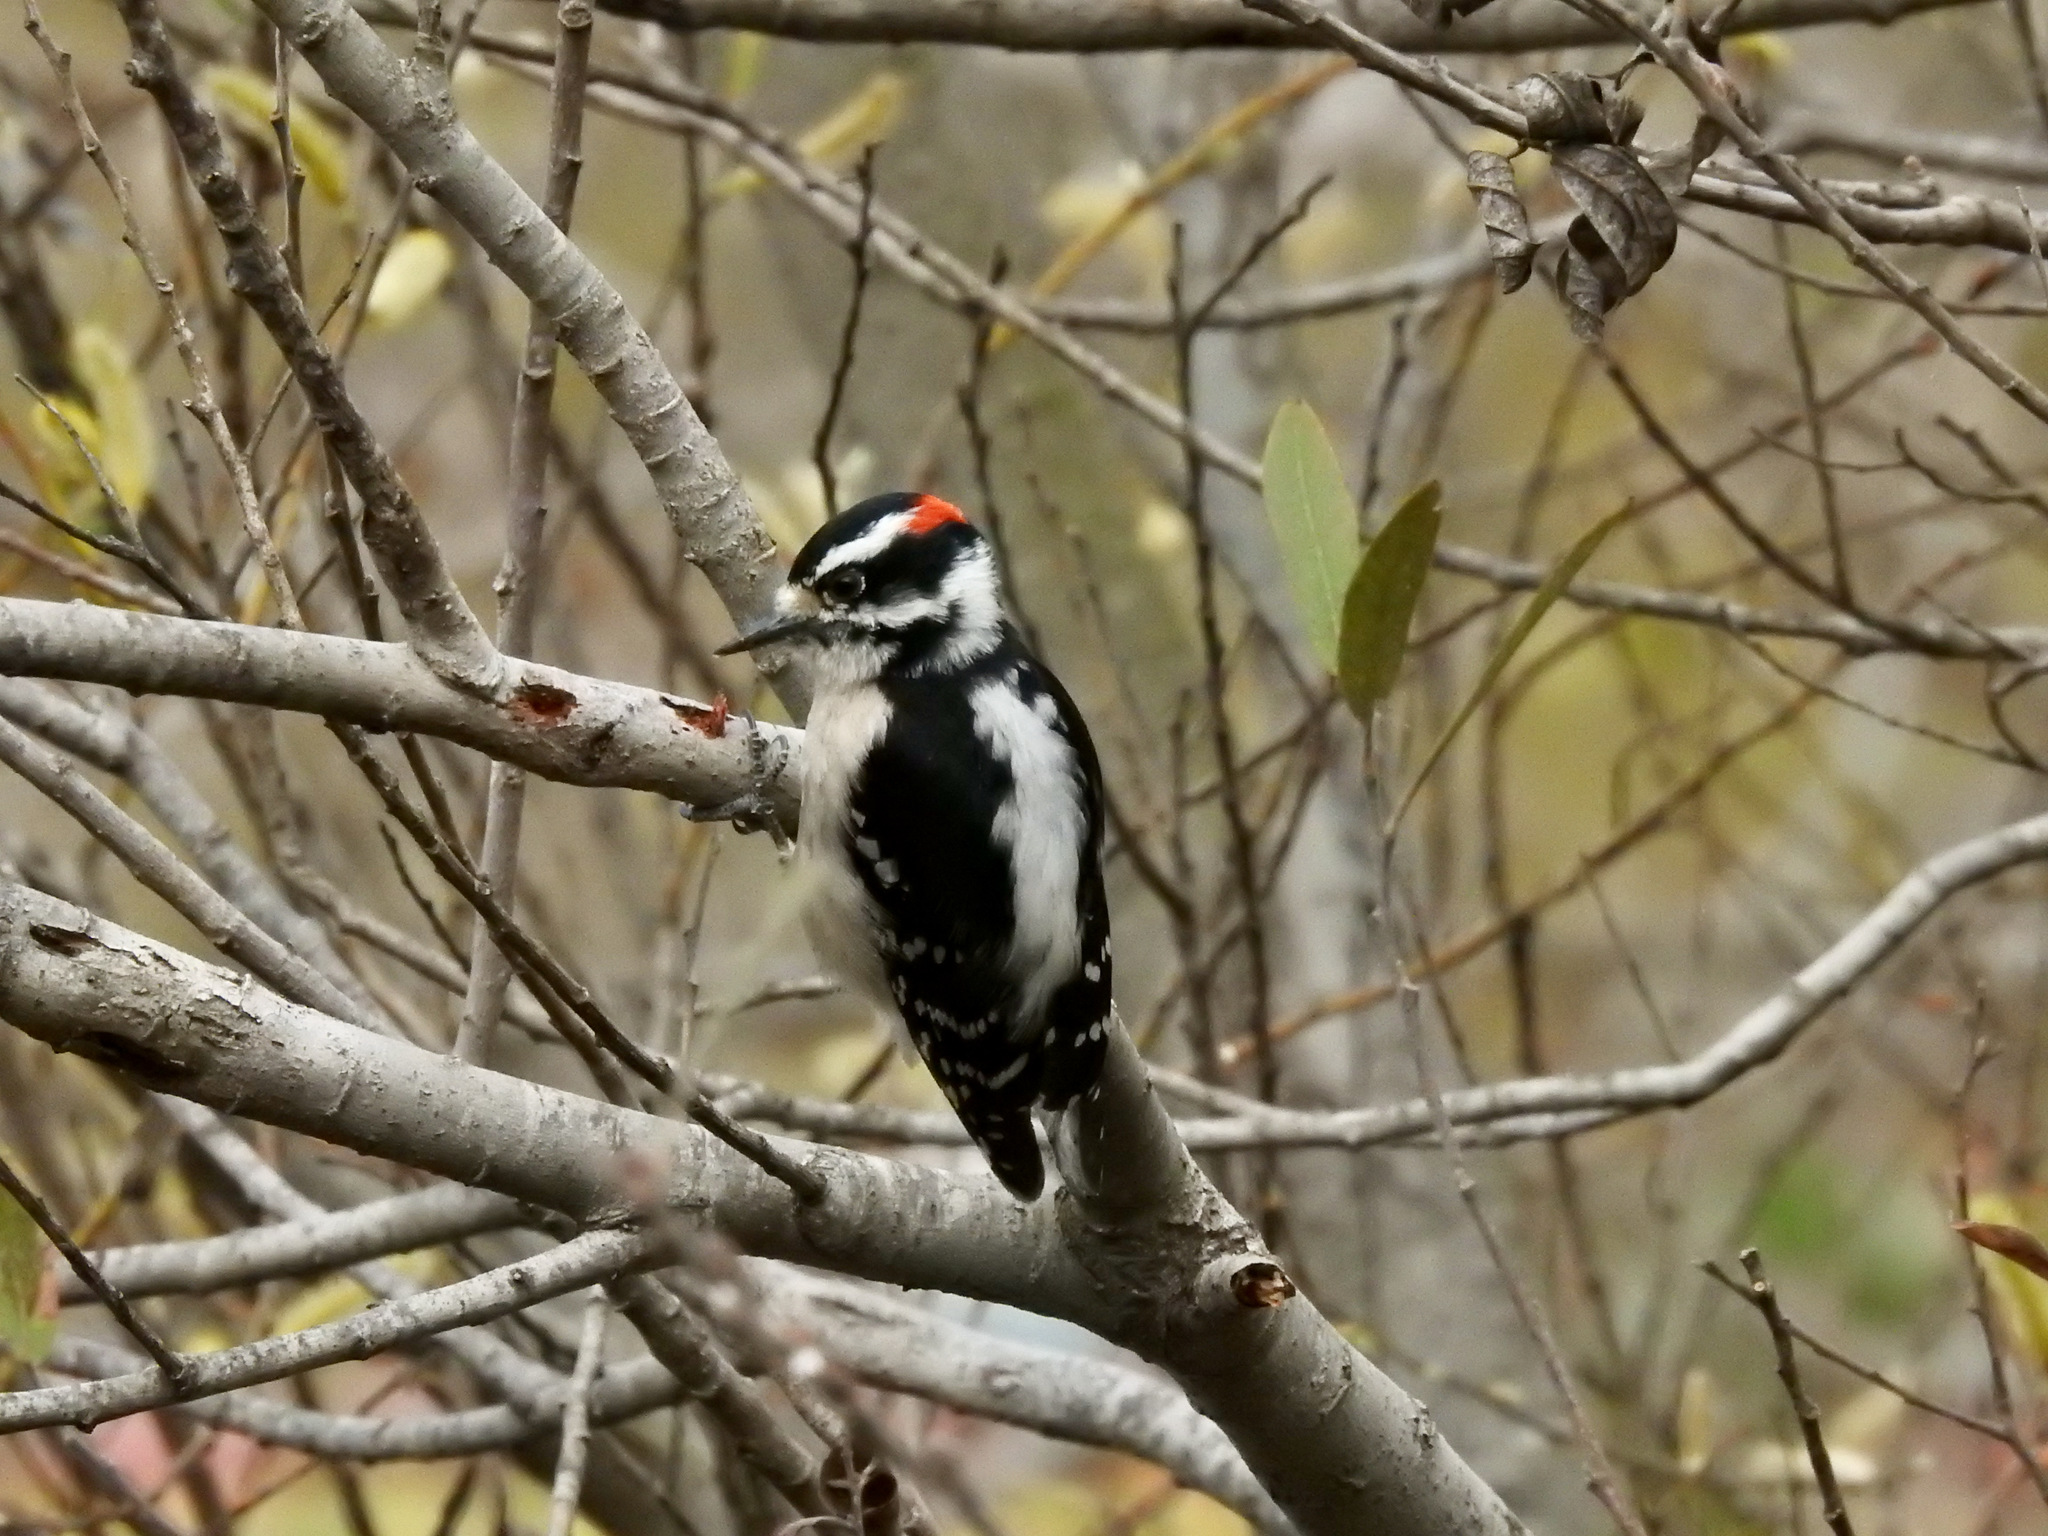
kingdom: Animalia
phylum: Chordata
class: Aves
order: Piciformes
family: Picidae
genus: Dryobates
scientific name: Dryobates pubescens
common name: Downy woodpecker
